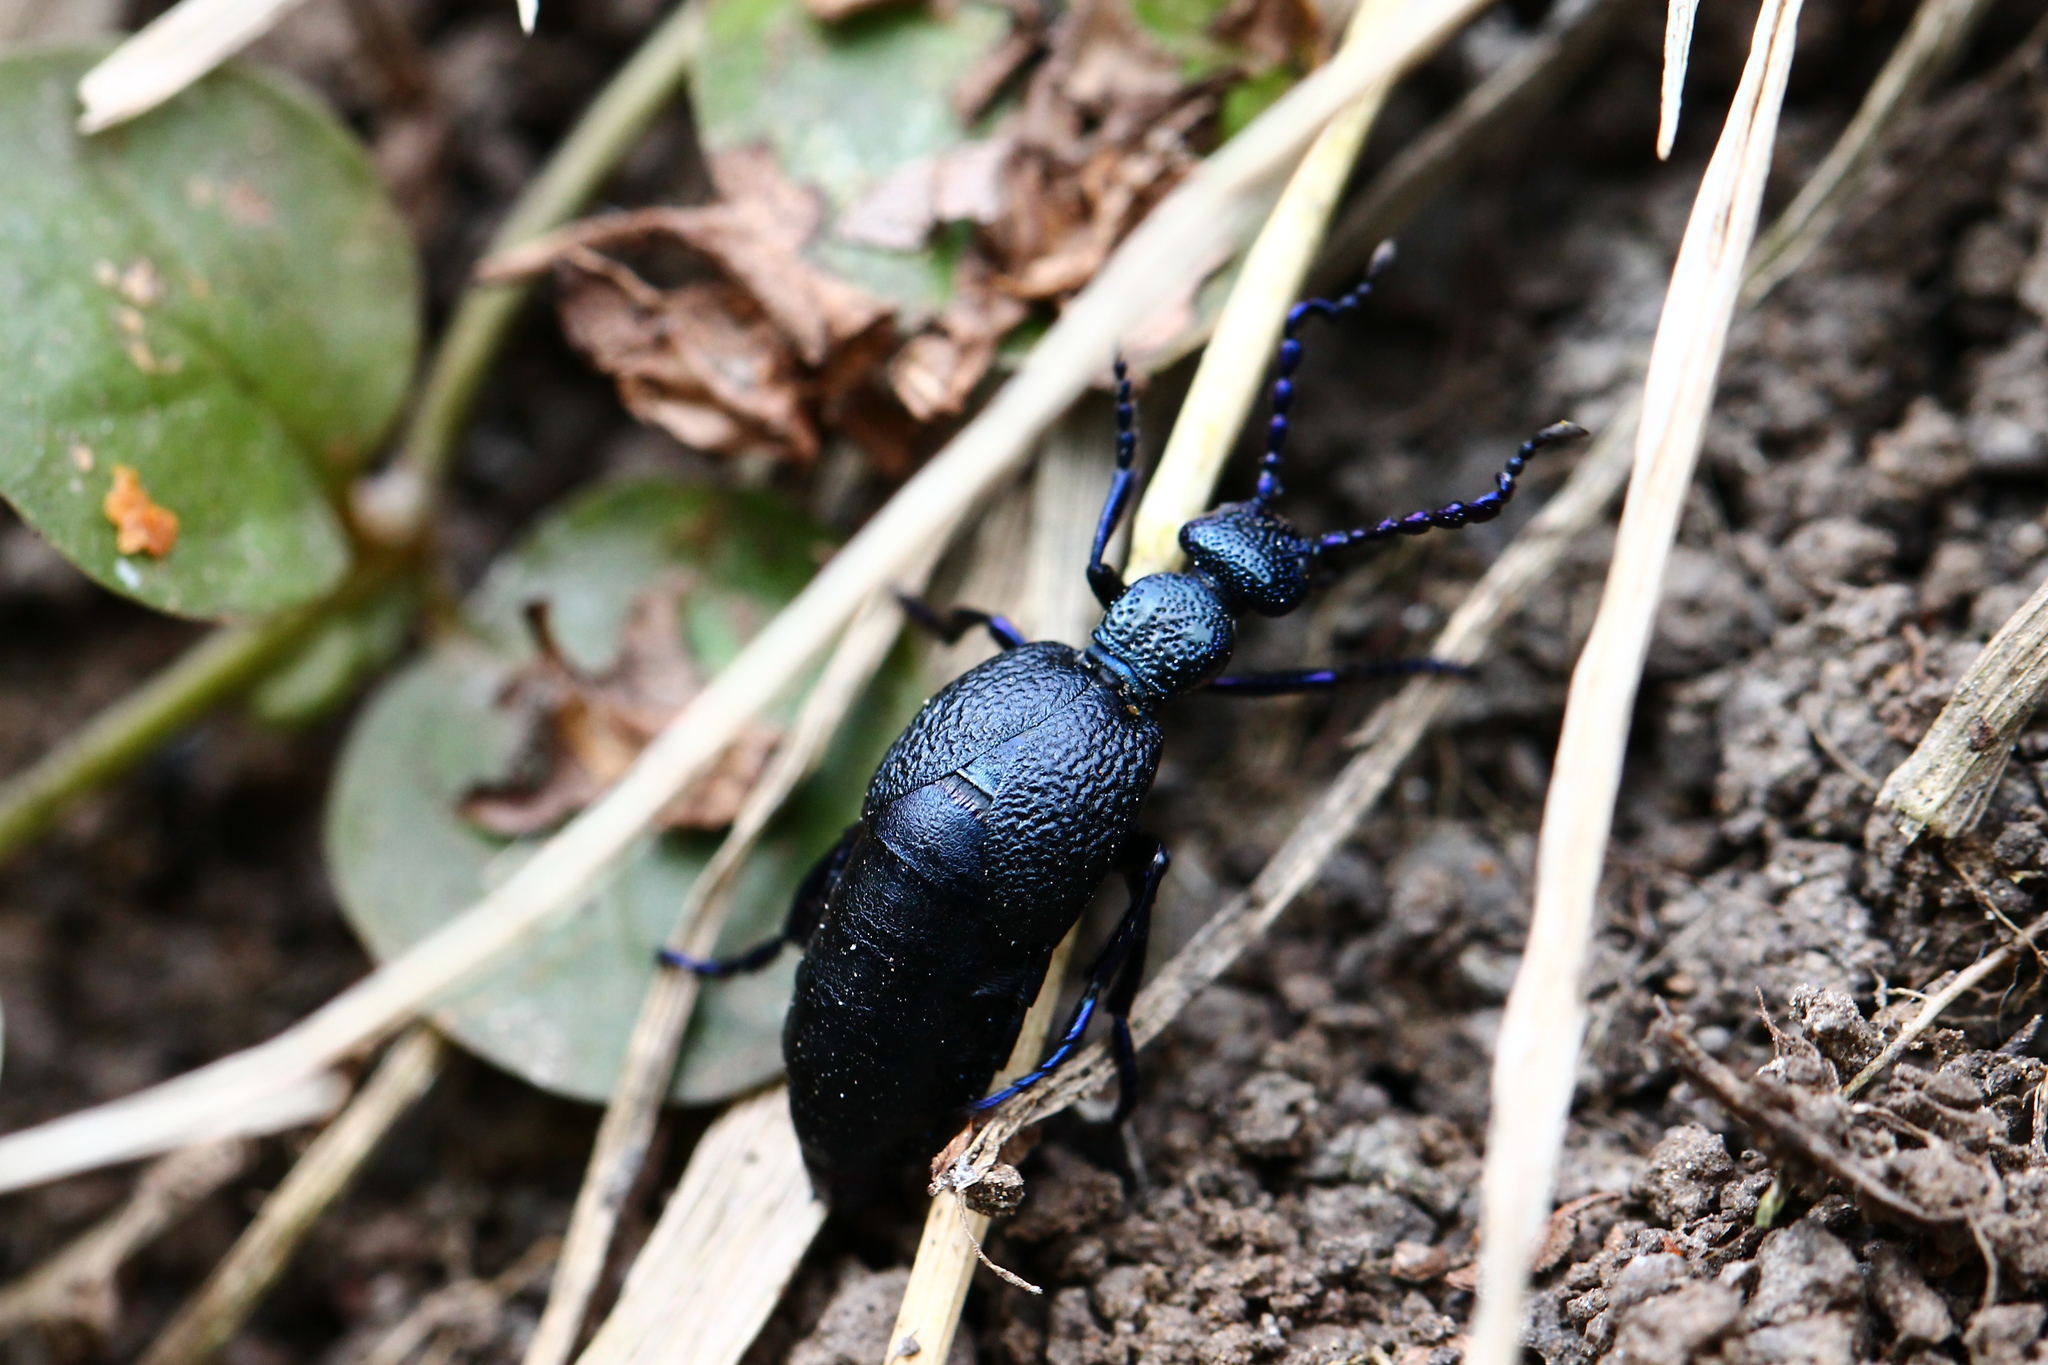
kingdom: Animalia
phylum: Arthropoda
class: Insecta
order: Coleoptera
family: Meloidae
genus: Meloe
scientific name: Meloe proscarabaeus
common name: Black oil-beetle
